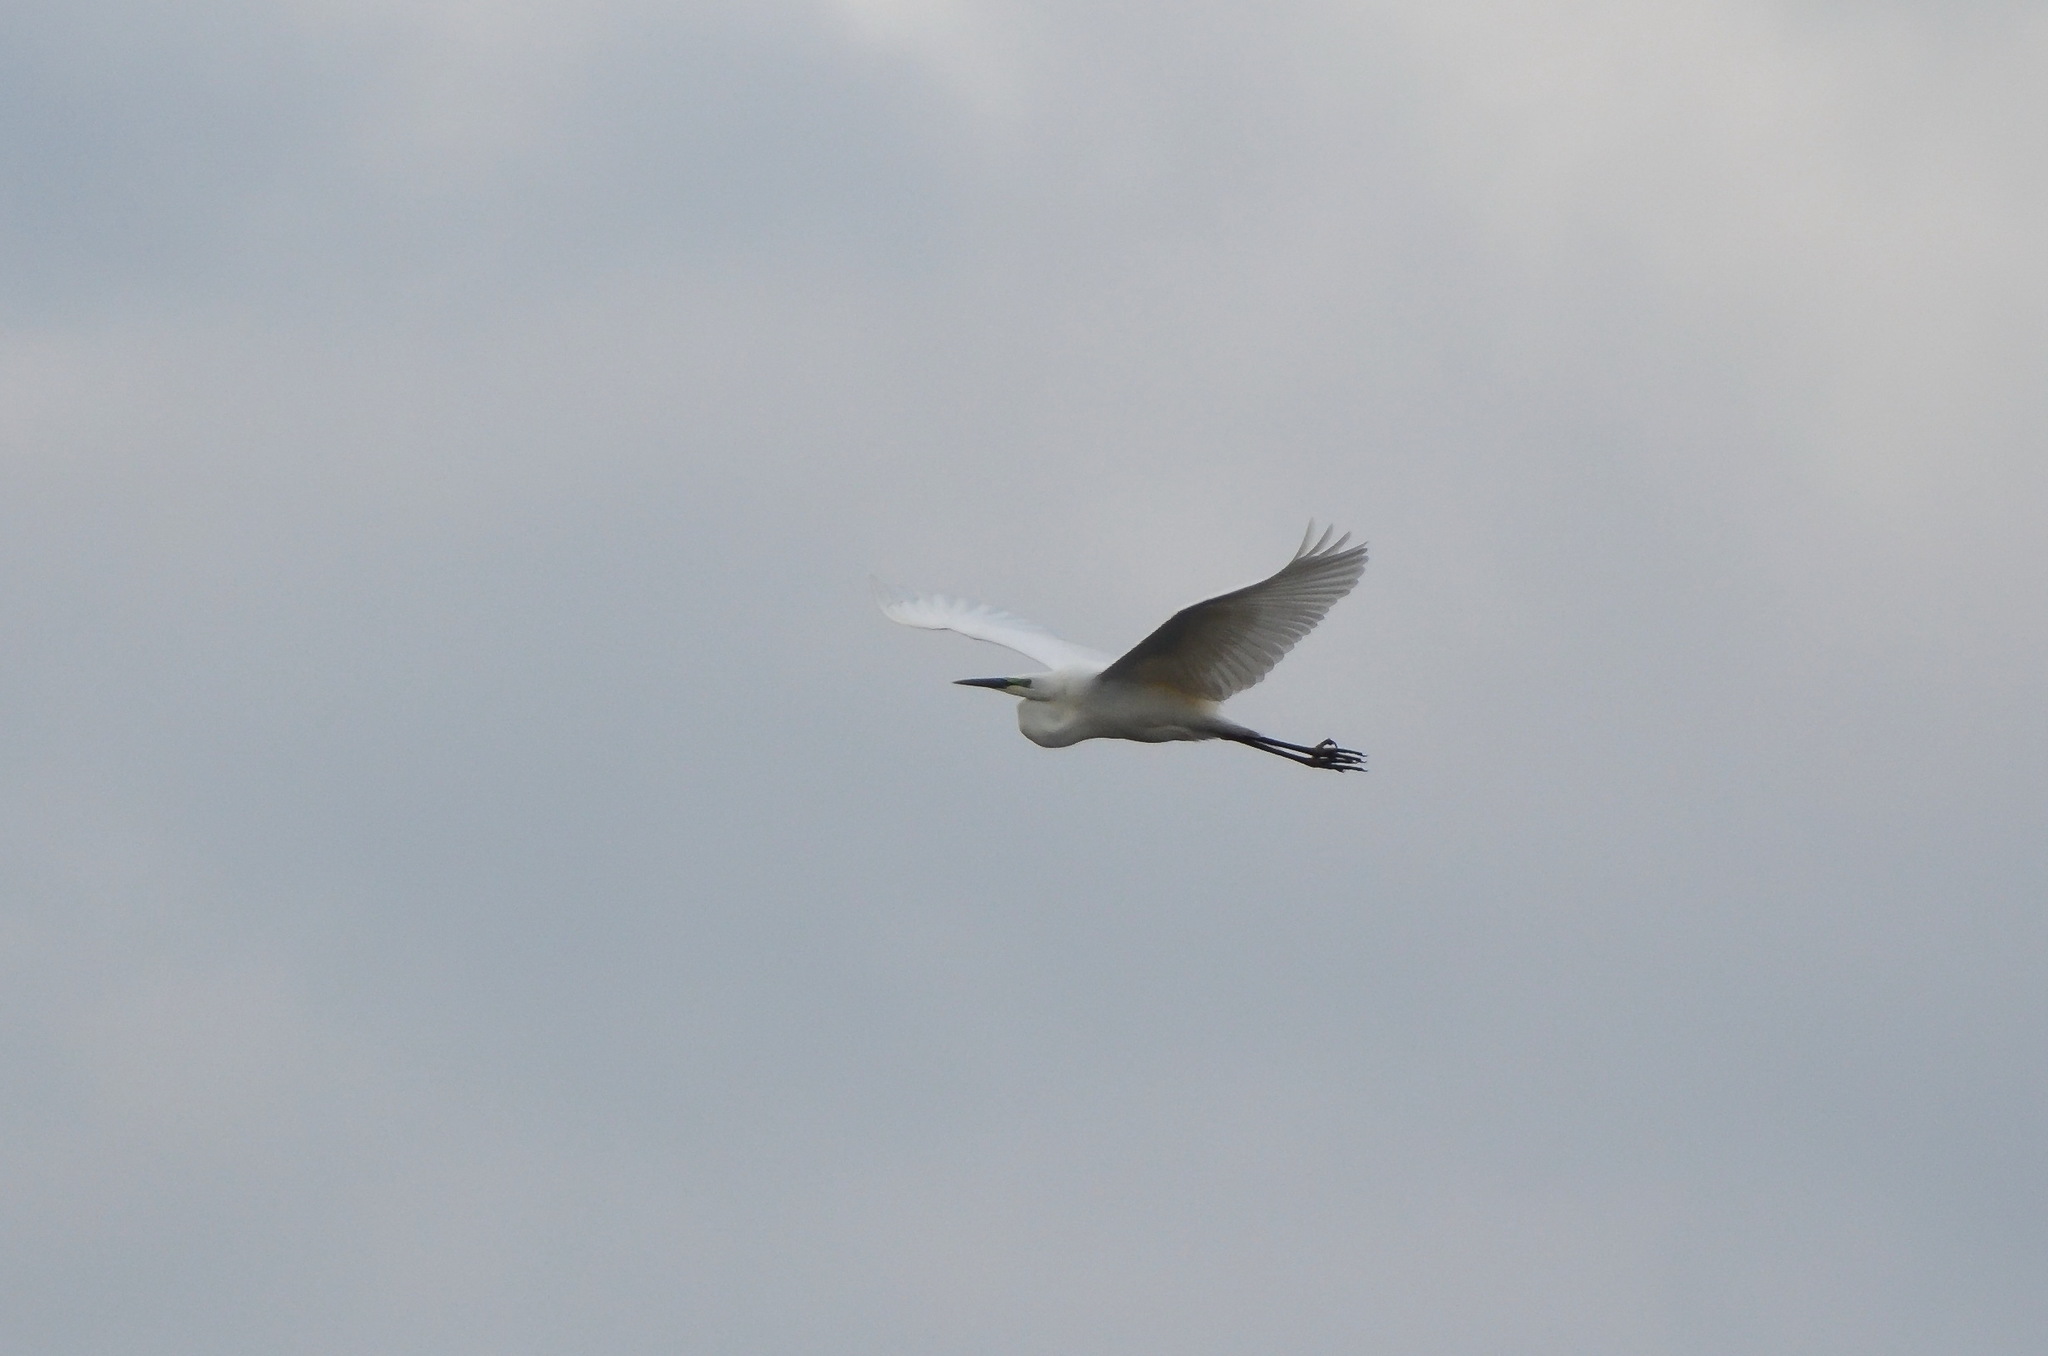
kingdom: Animalia
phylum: Chordata
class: Aves
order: Pelecaniformes
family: Ardeidae
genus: Ardea
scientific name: Ardea alba
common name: Great egret
